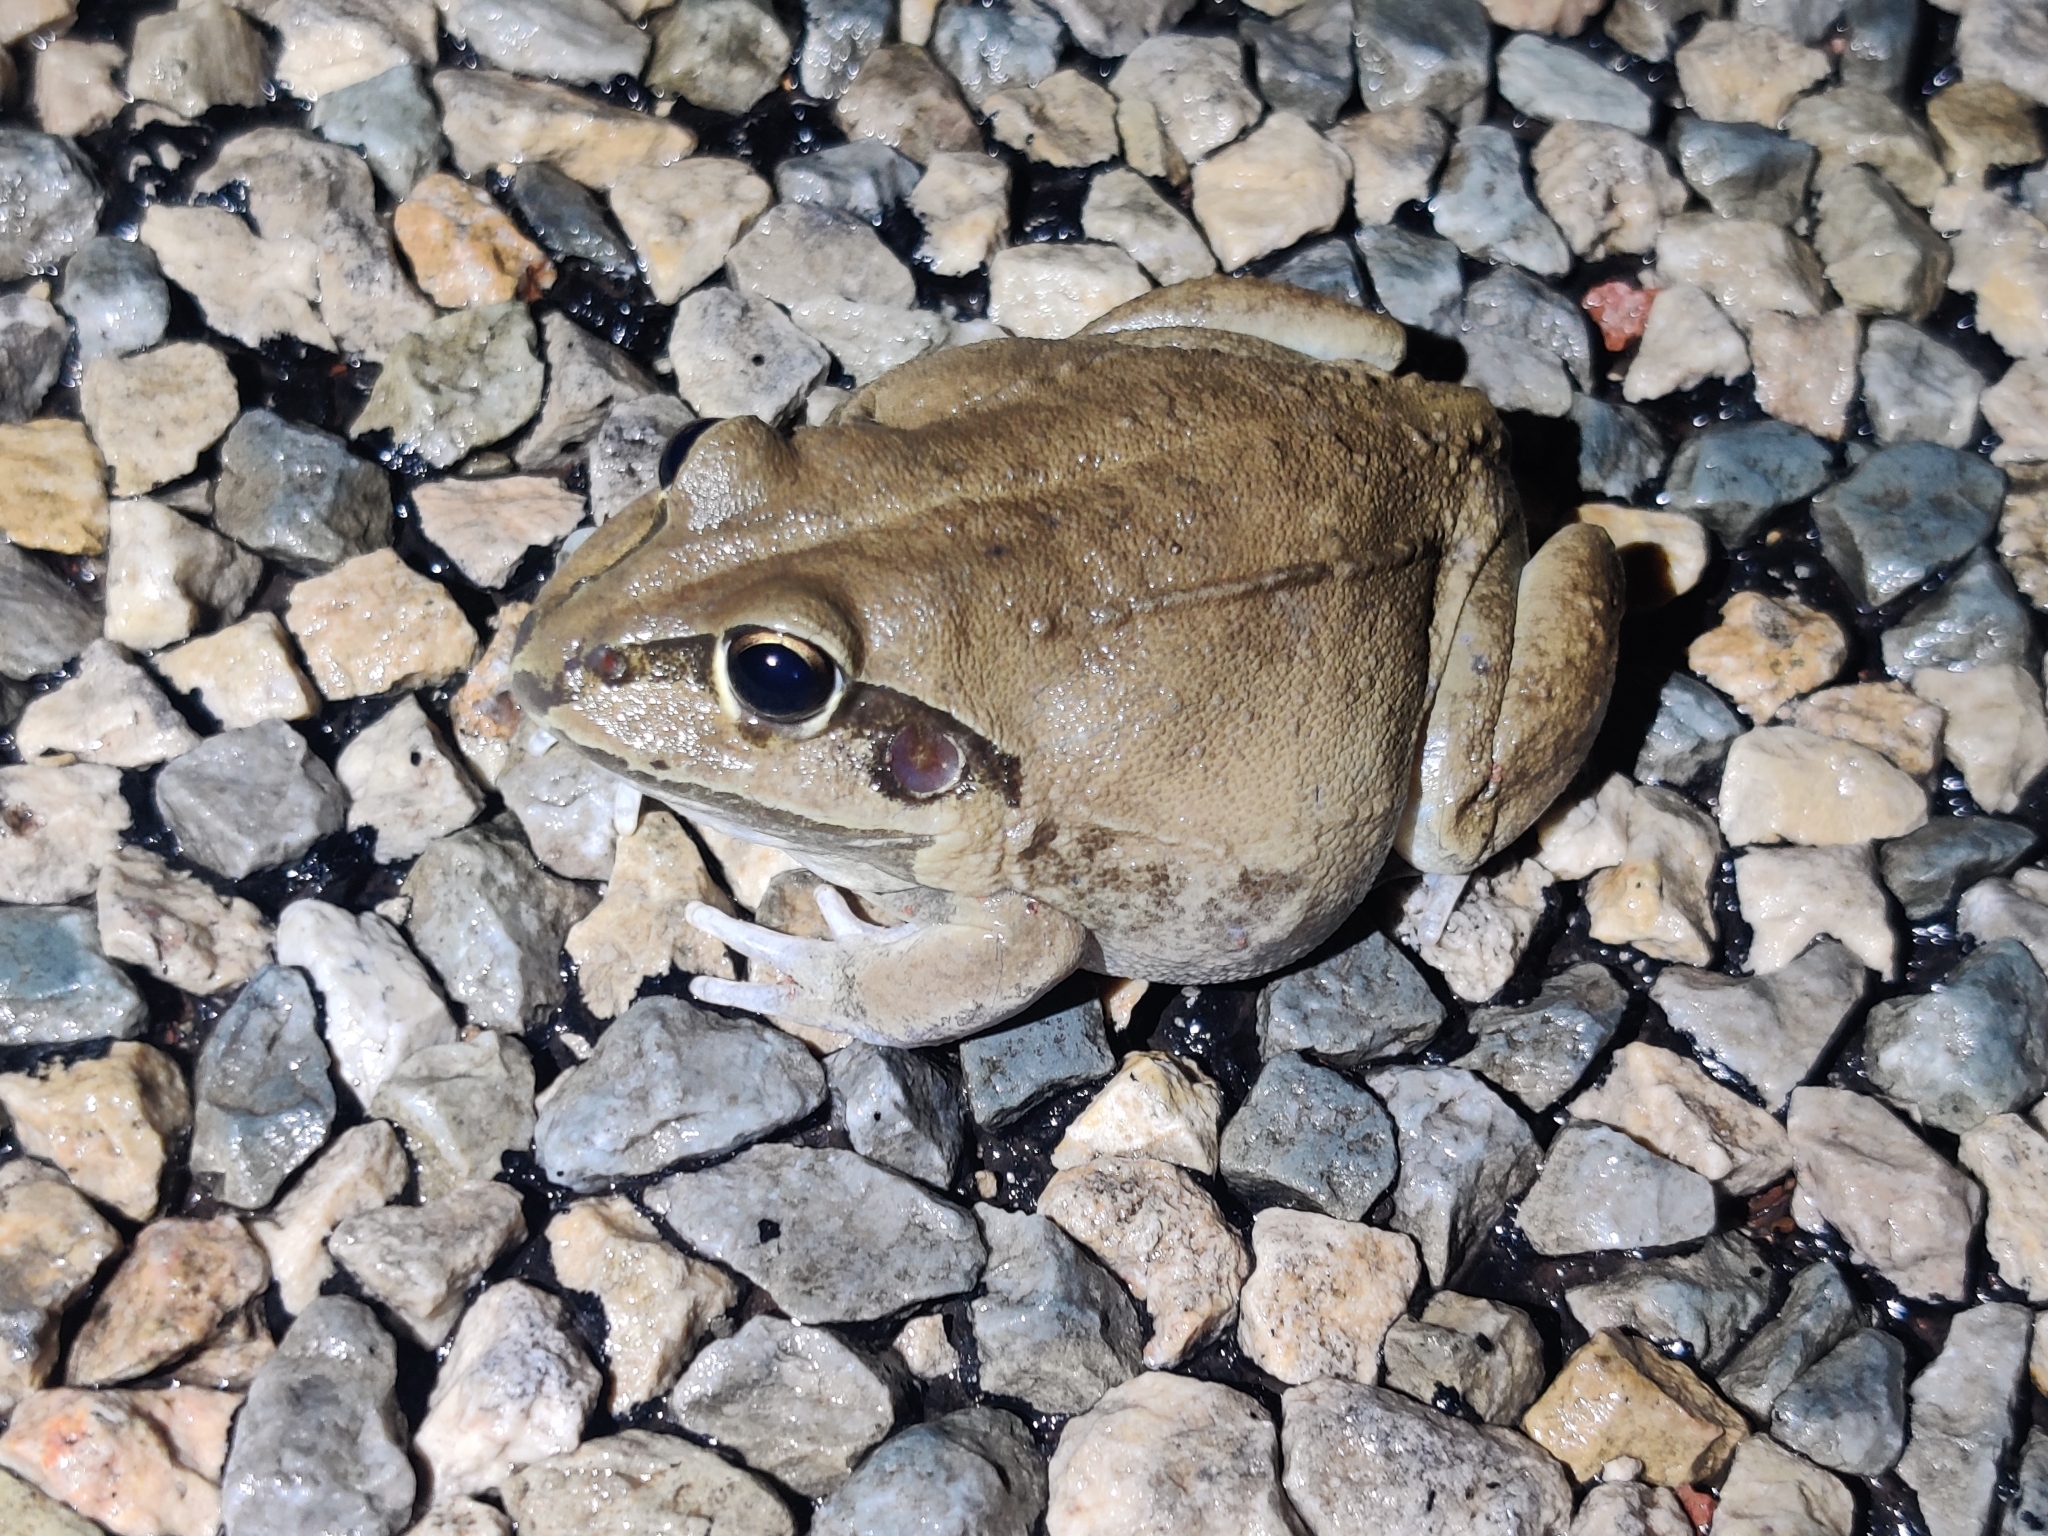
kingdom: Animalia
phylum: Chordata
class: Amphibia
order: Anura
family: Pelodryadidae
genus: Ranoidea
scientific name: Ranoidea australis
